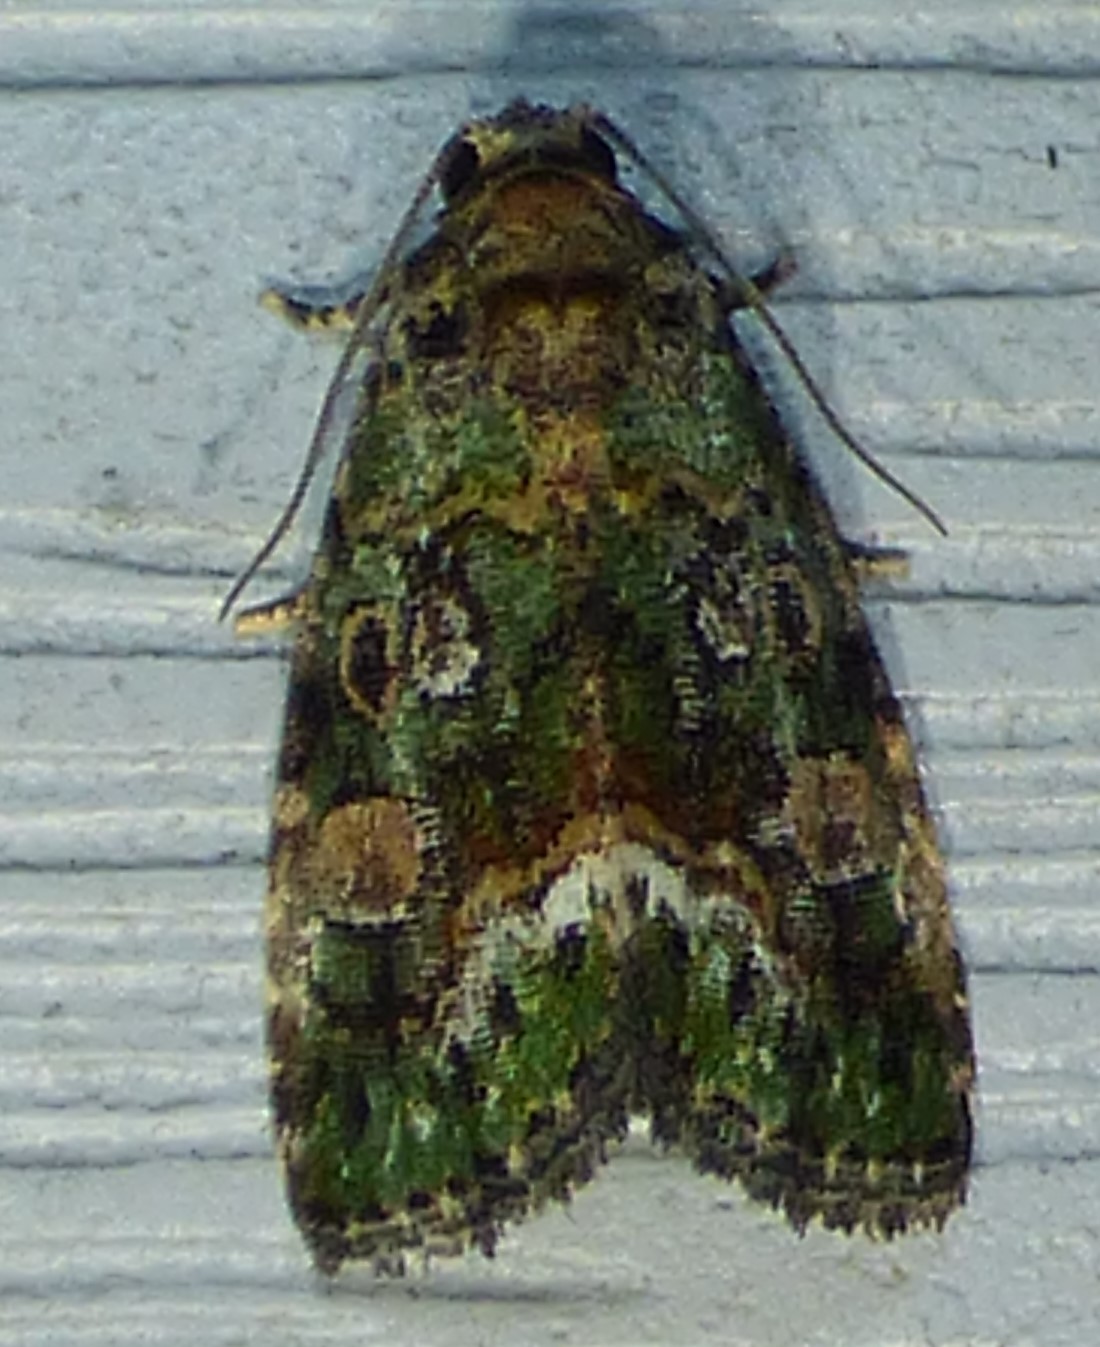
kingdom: Animalia
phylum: Arthropoda
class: Insecta
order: Lepidoptera
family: Noctuidae
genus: Lithacodia
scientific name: Lithacodia musta
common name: Small mossy glyph
